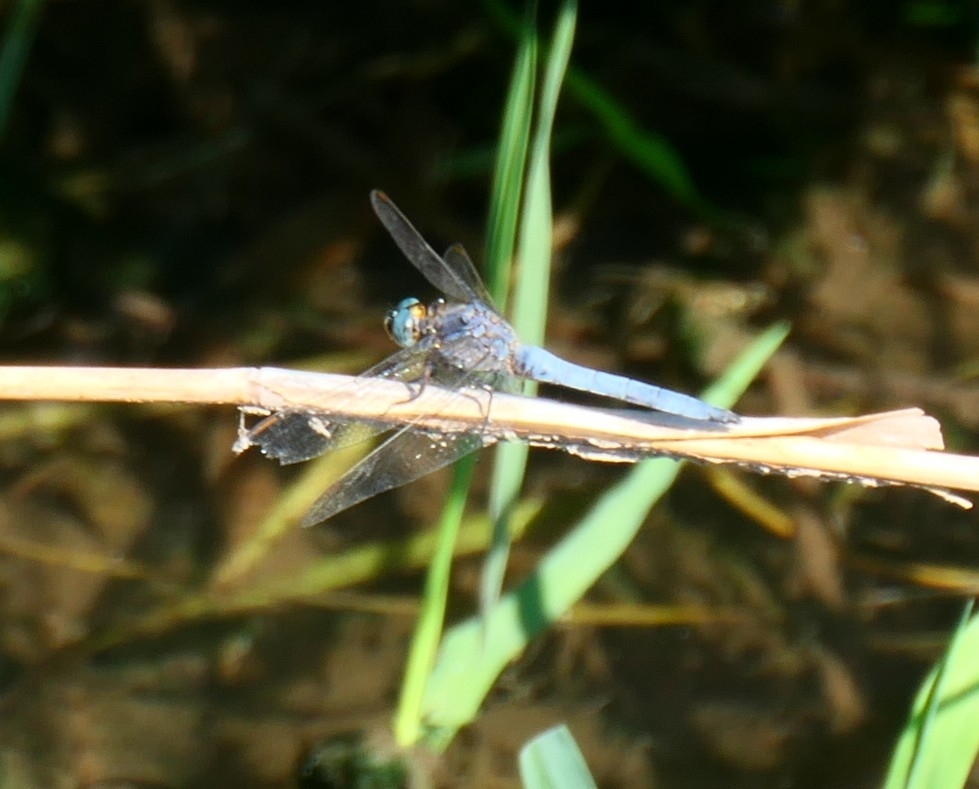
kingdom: Animalia
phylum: Arthropoda
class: Insecta
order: Odonata
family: Libellulidae
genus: Orthetrum
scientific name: Orthetrum coerulescens
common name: Keeled skimmer
